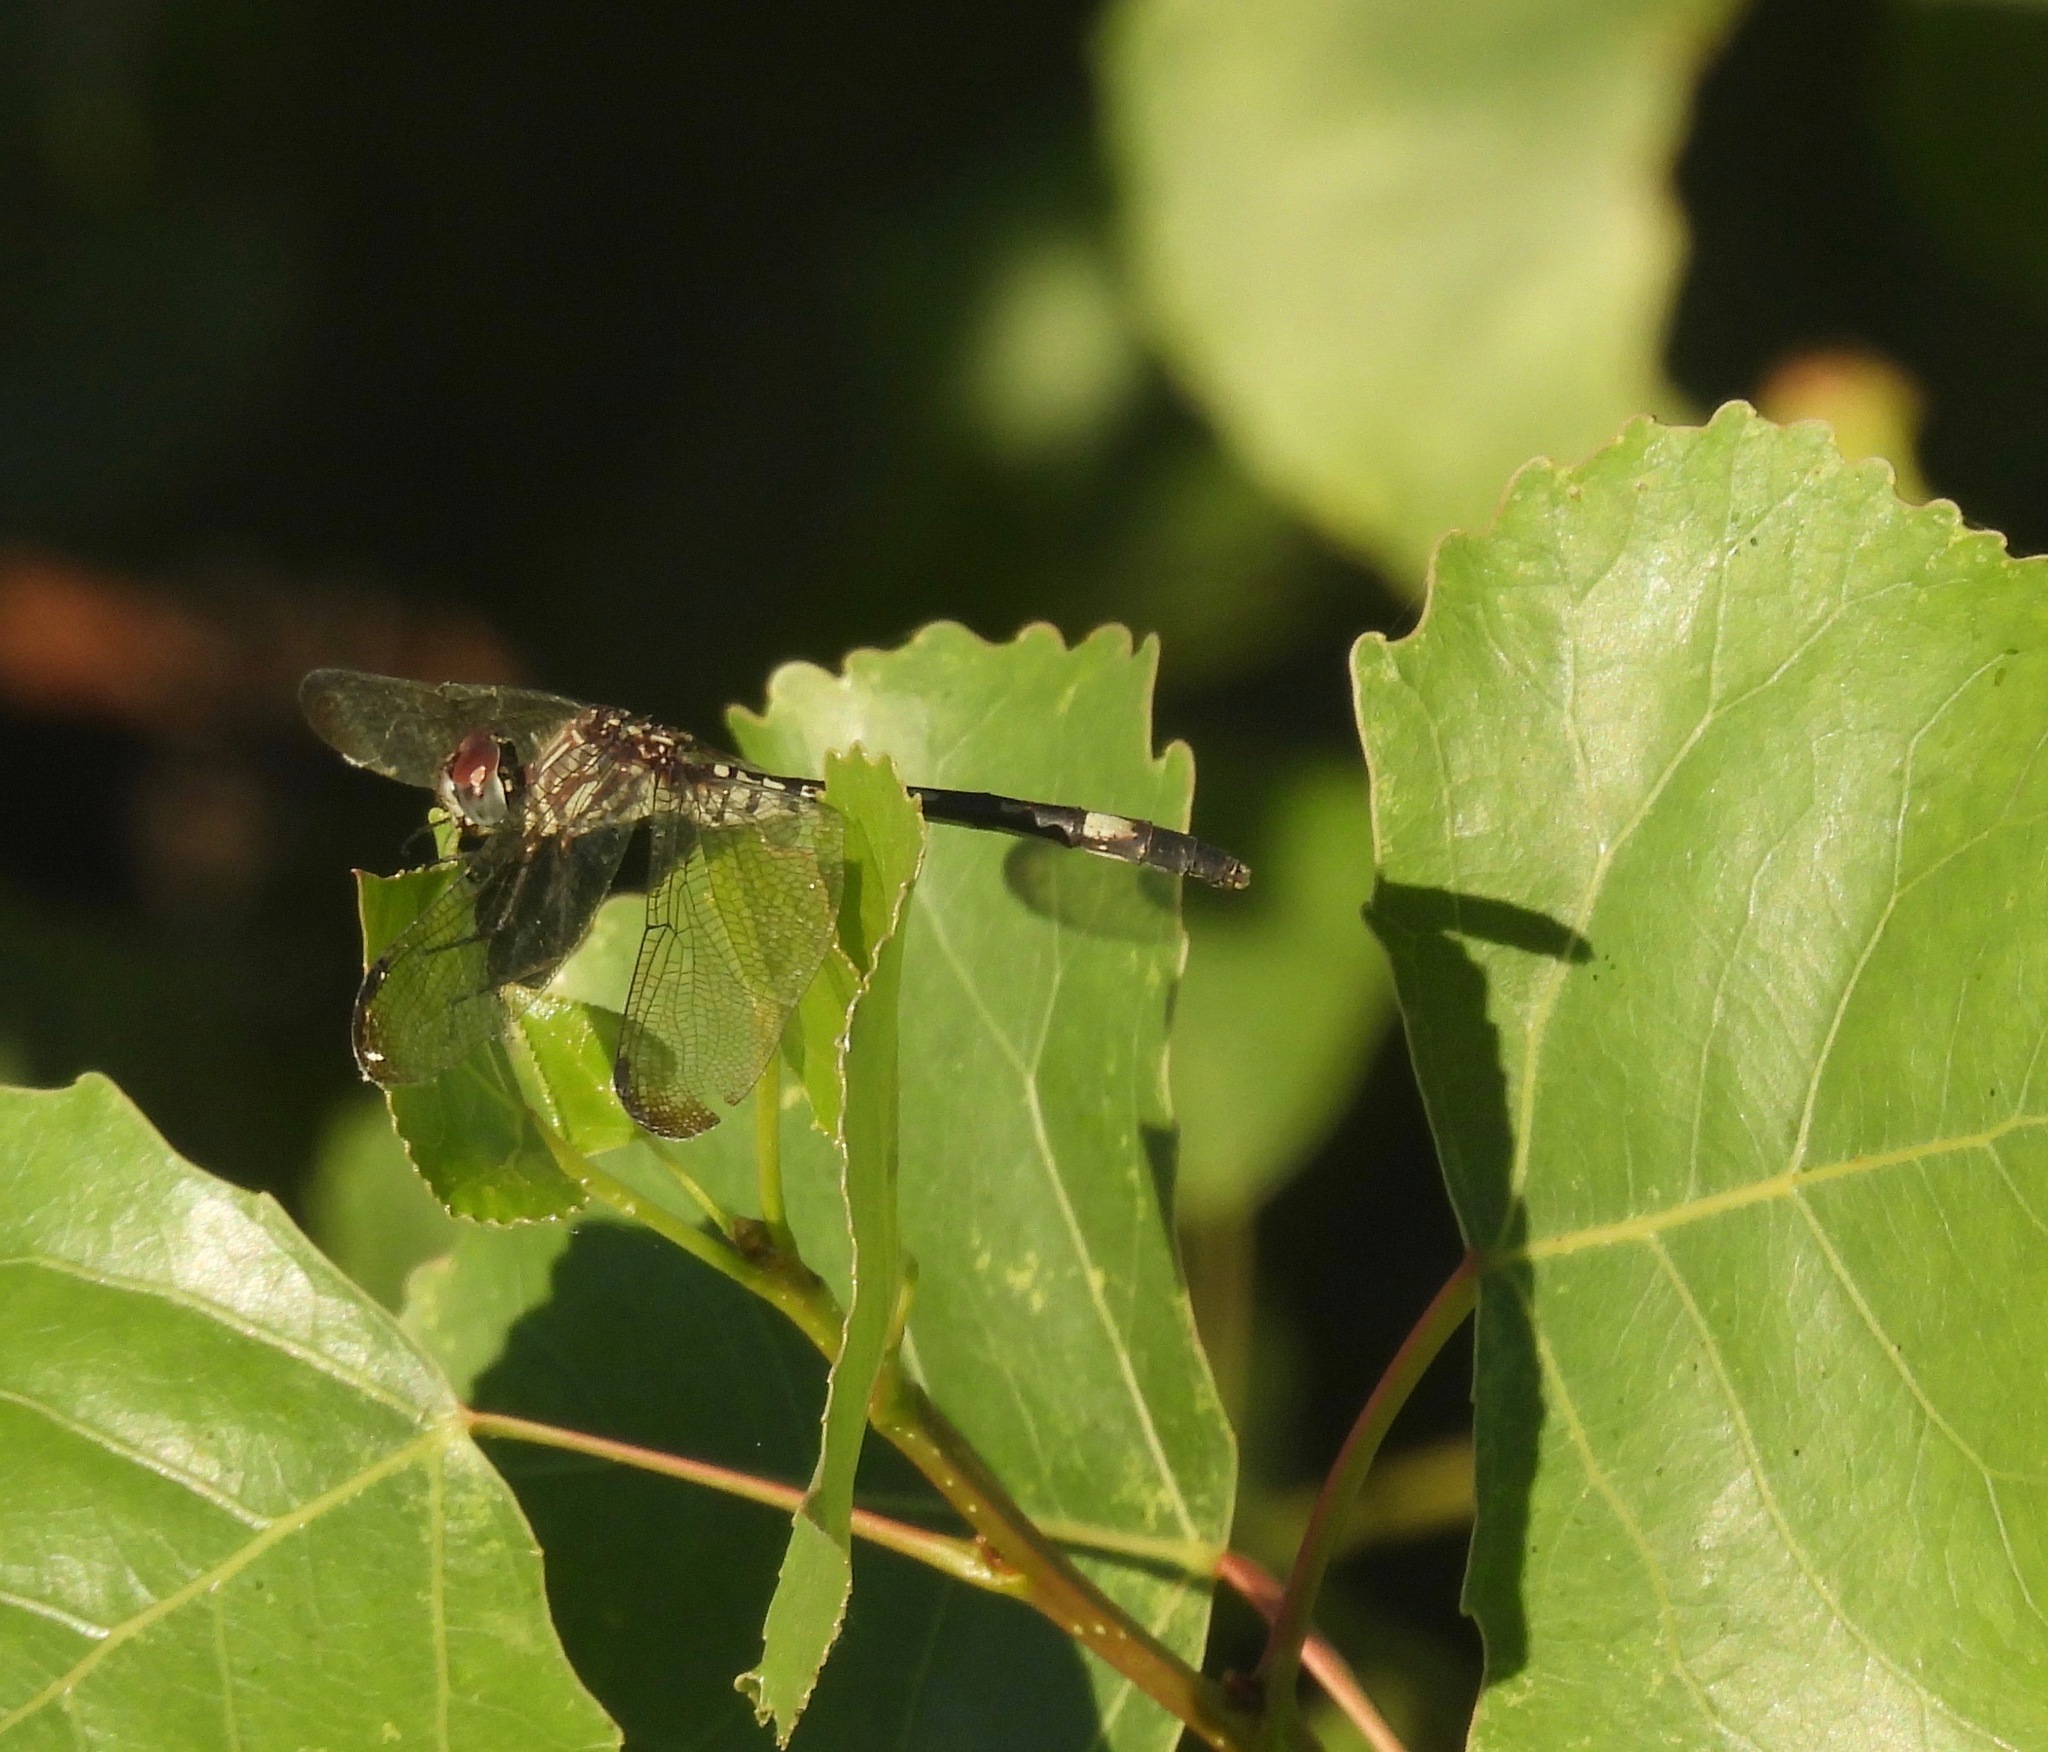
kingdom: Animalia
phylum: Arthropoda
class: Insecta
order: Odonata
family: Libellulidae
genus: Dythemis
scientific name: Dythemis velox
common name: Swift setwing
